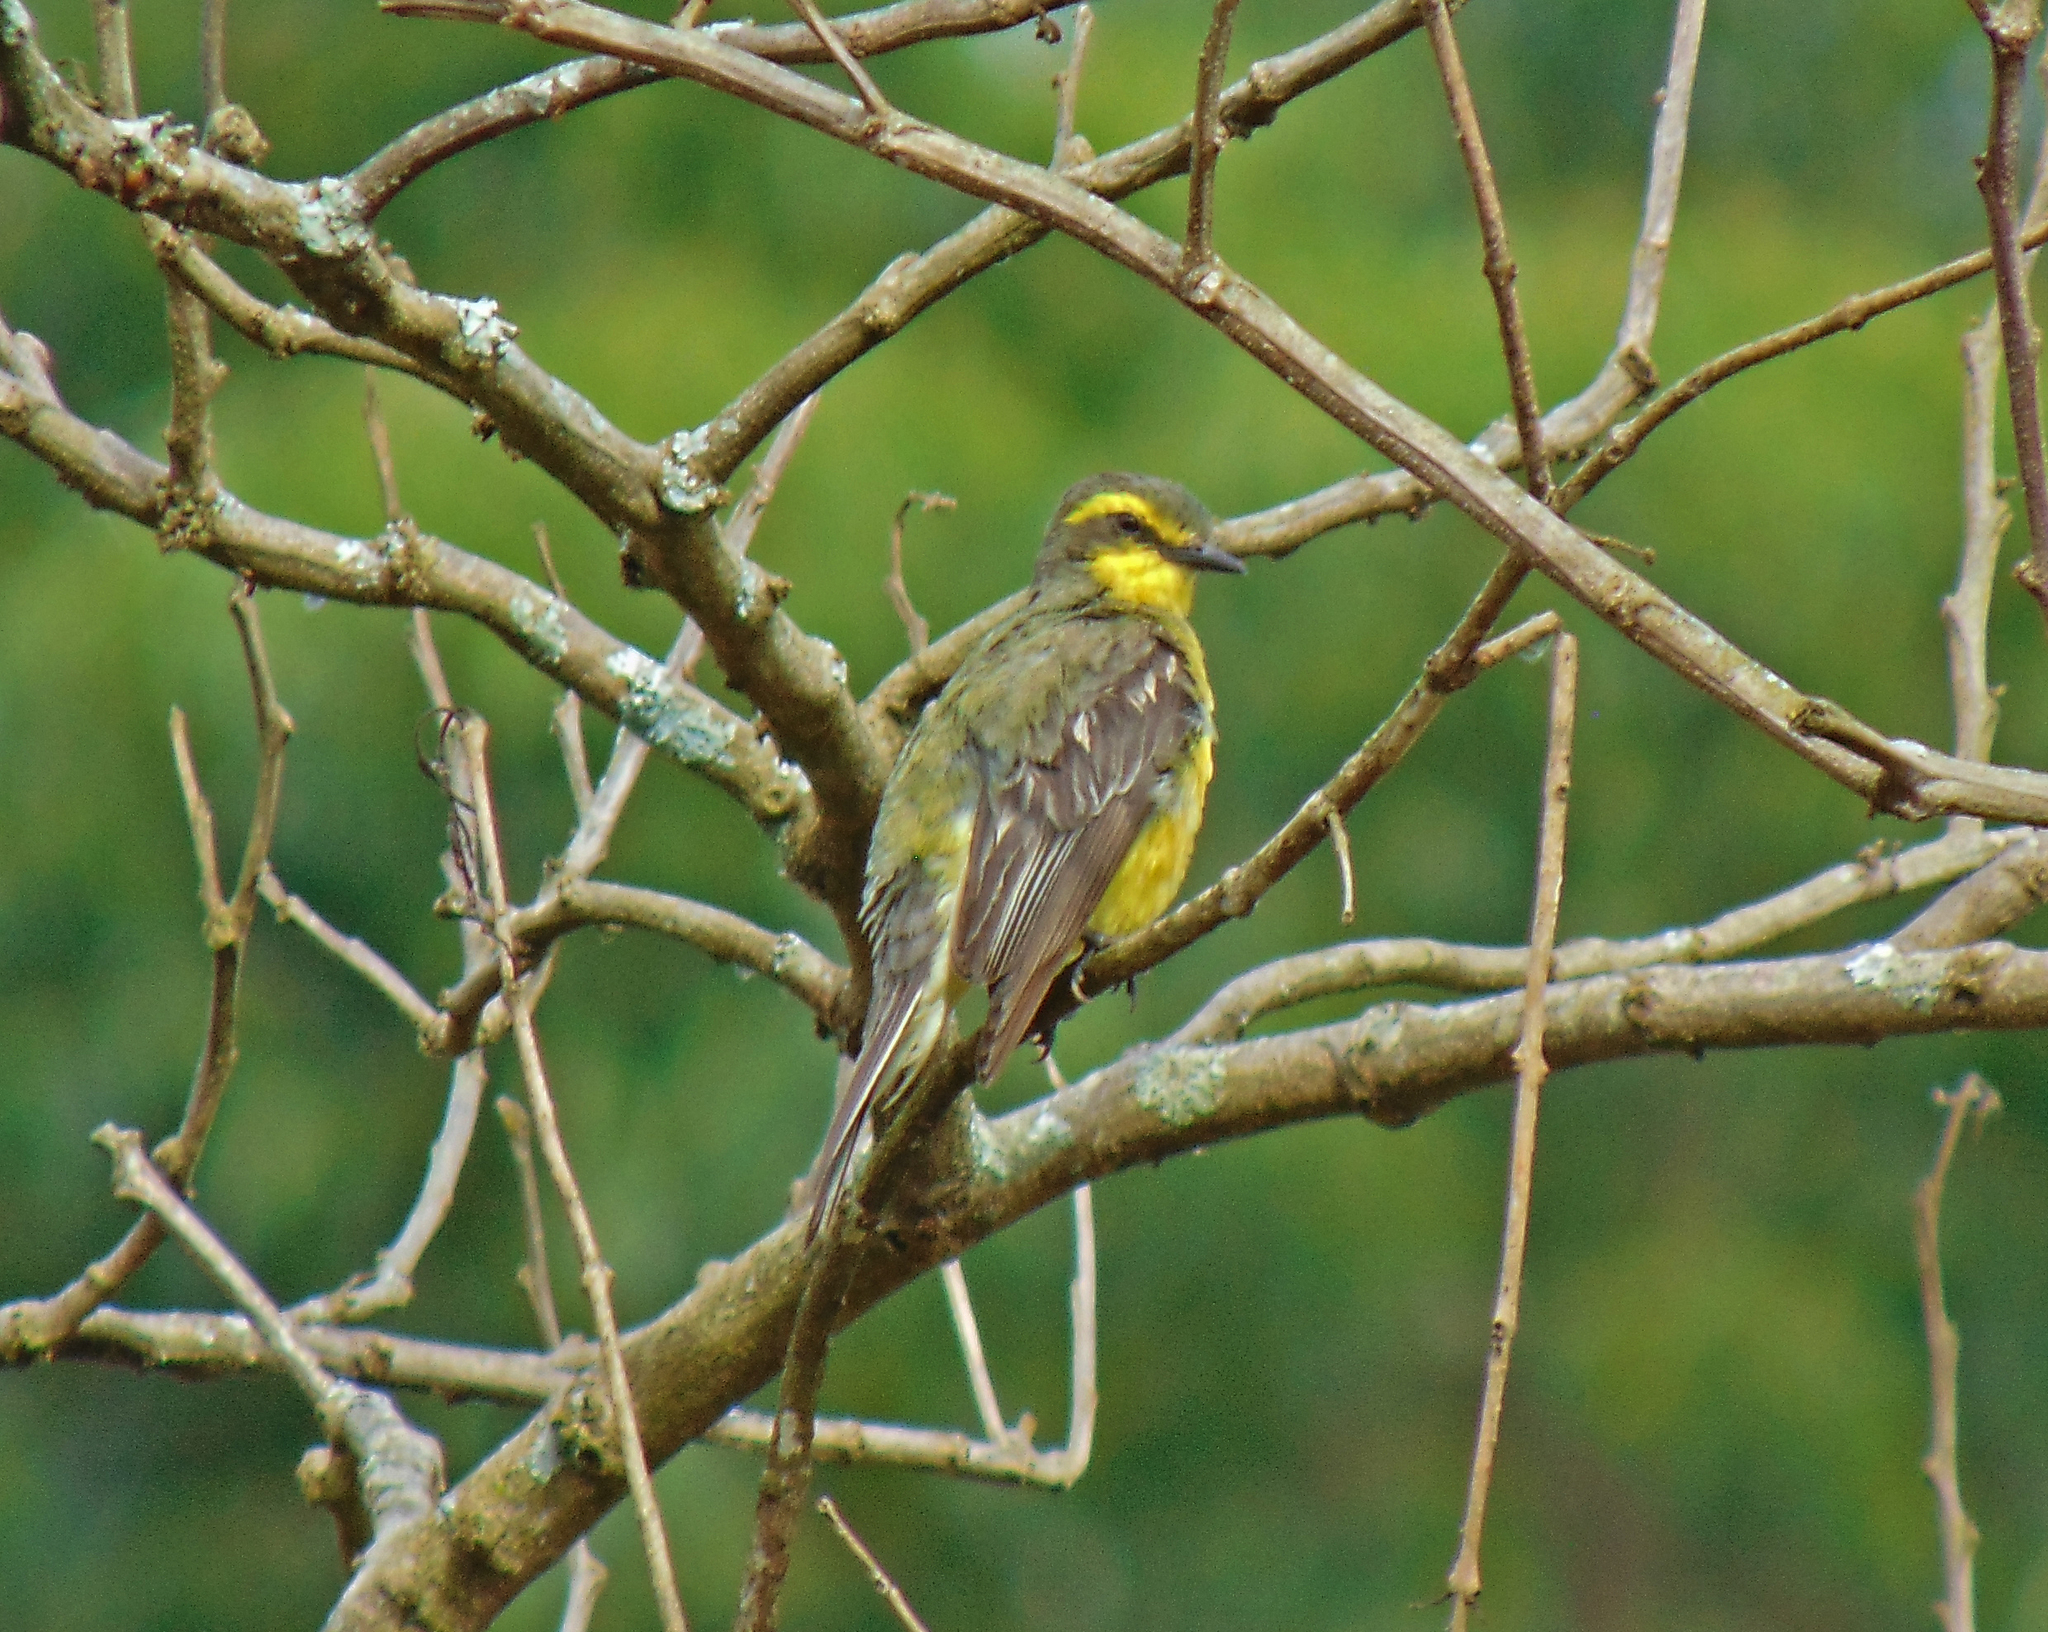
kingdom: Animalia
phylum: Chordata
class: Aves
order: Passeriformes
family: Tyrannidae
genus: Satrapa
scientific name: Satrapa icterophrys
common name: Yellow-browed tyrant
